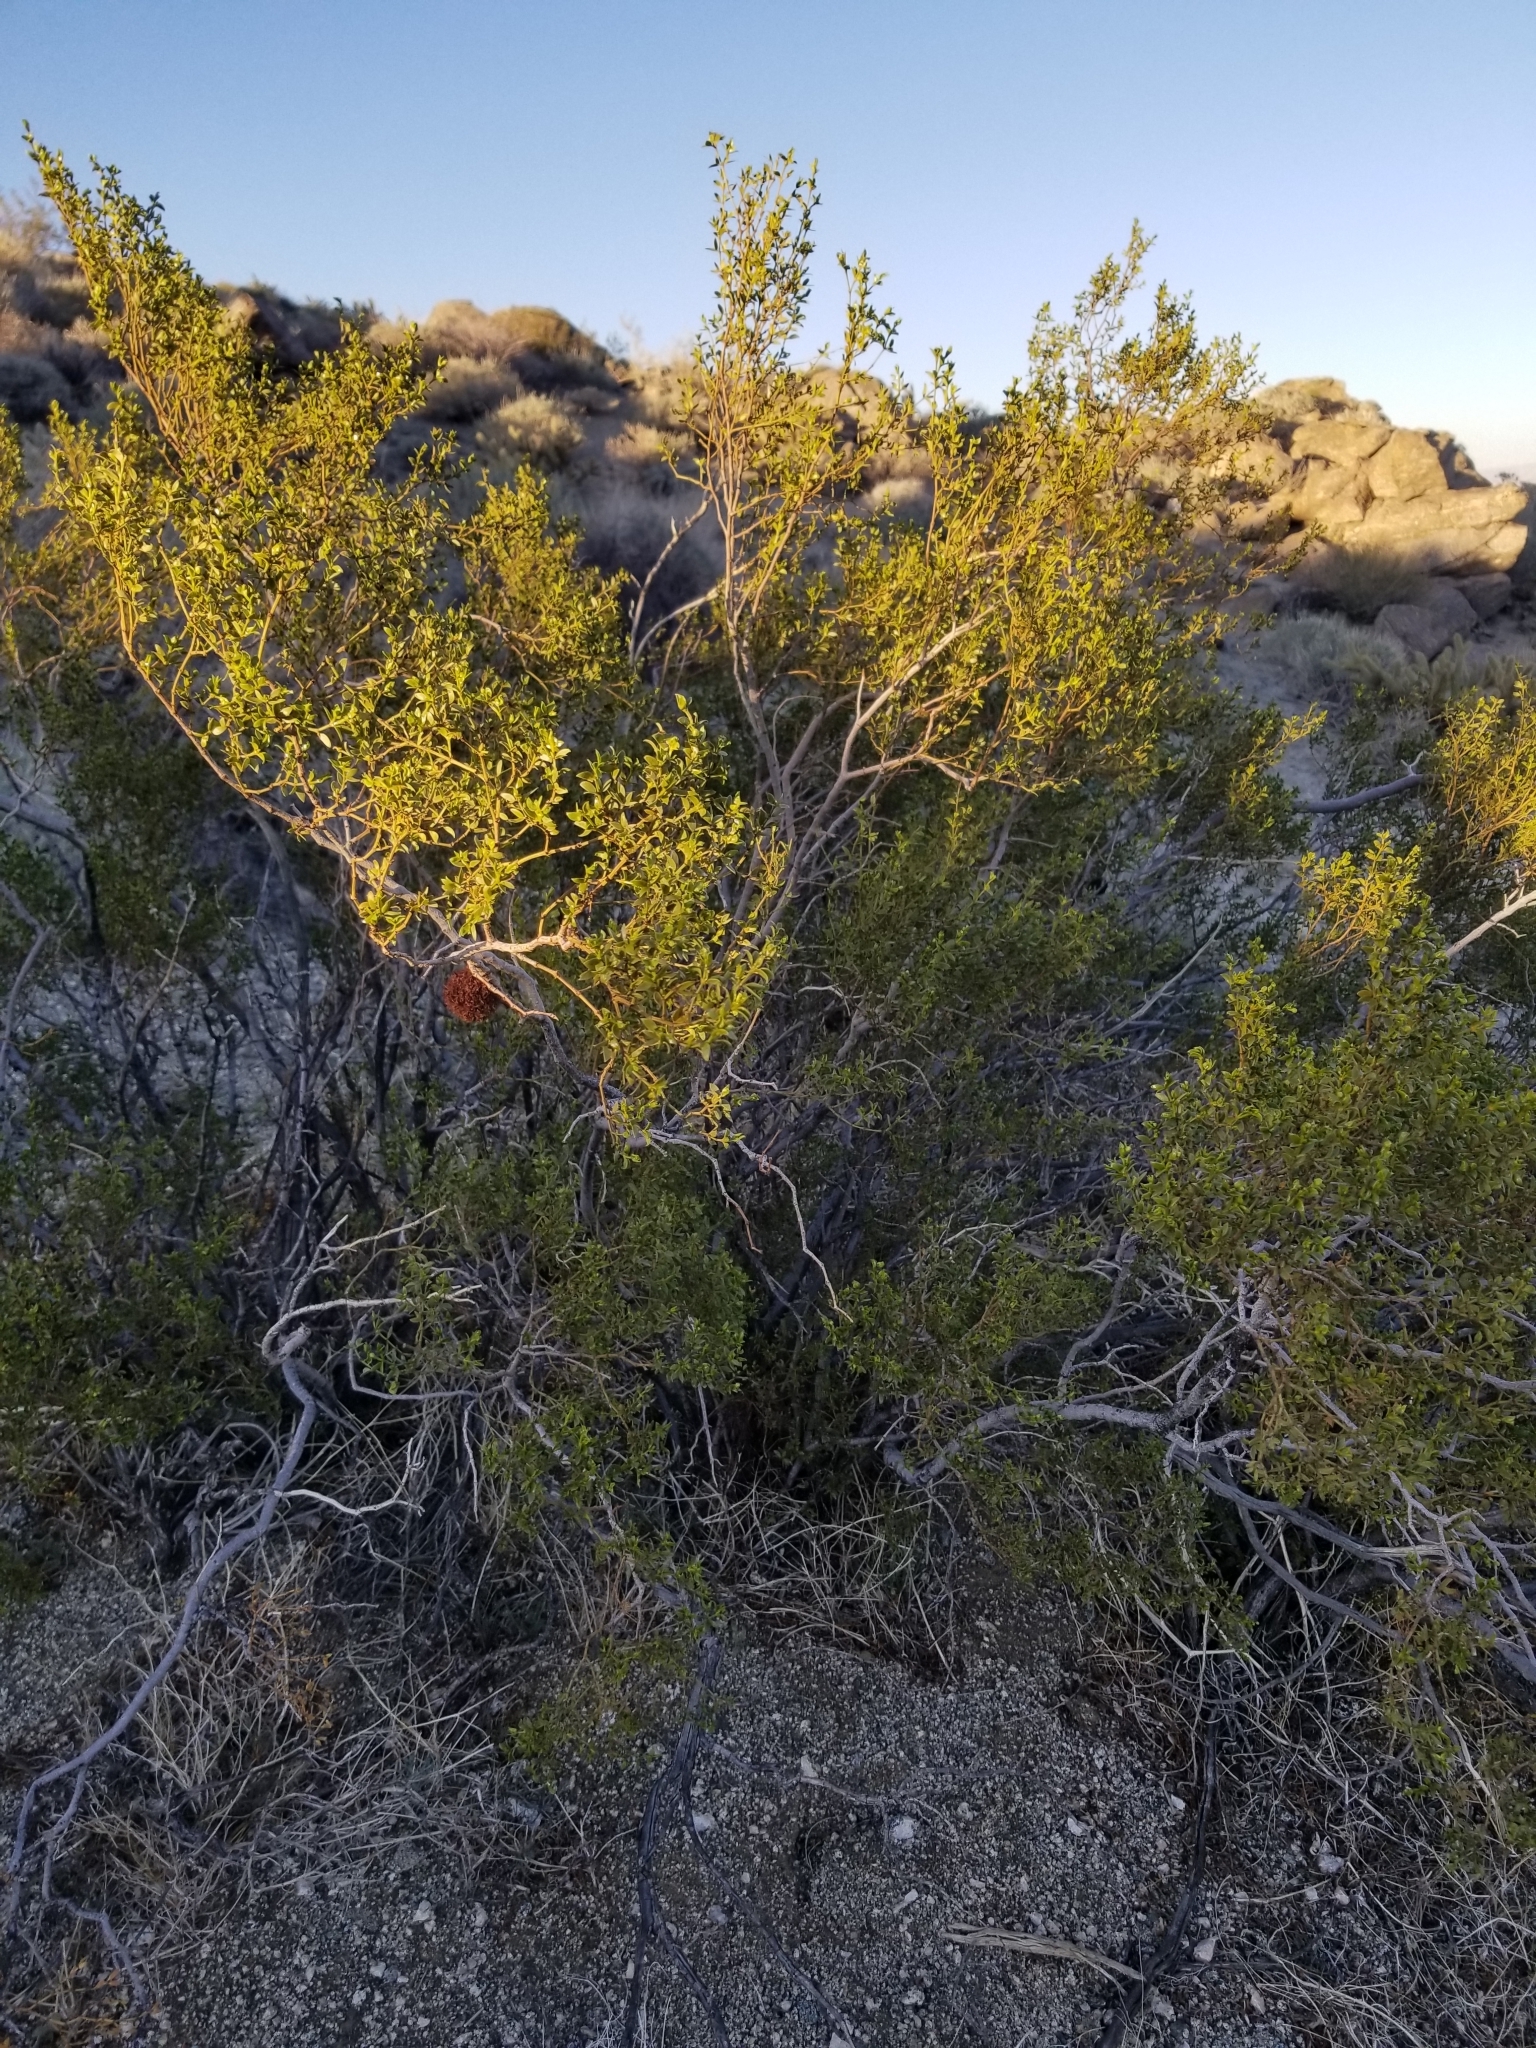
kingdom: Plantae
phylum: Tracheophyta
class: Magnoliopsida
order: Zygophyllales
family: Zygophyllaceae
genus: Larrea
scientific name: Larrea tridentata
